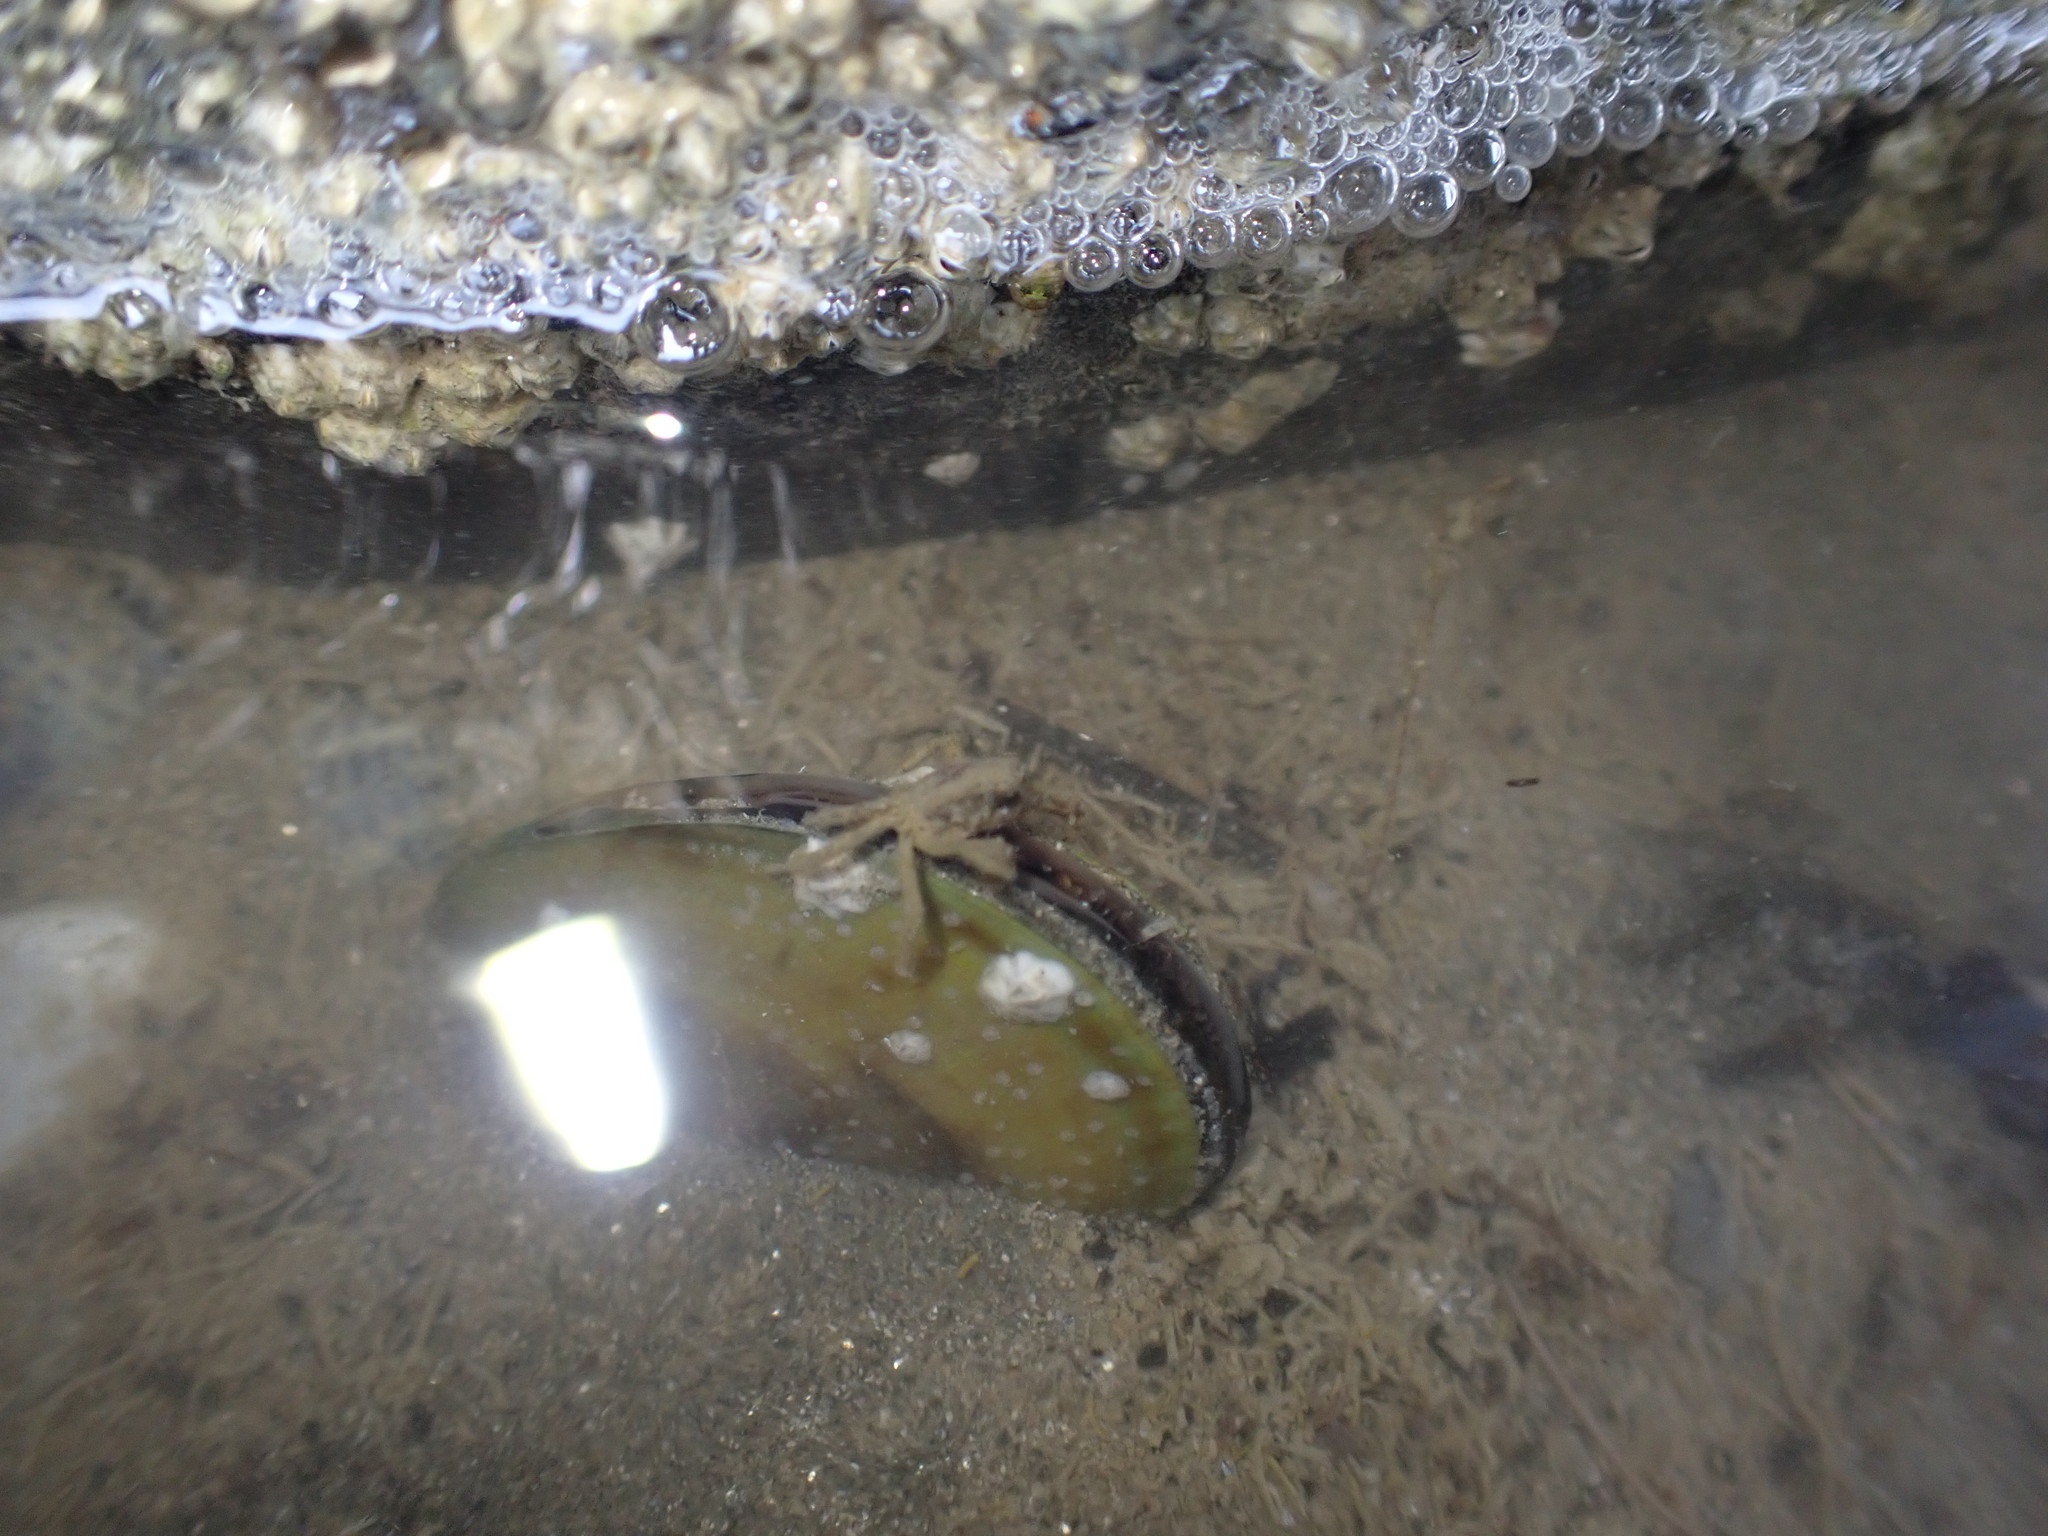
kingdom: Animalia
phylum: Mollusca
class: Bivalvia
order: Mytilida
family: Mytilidae
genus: Perna
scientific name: Perna canaliculus
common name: New zealand greenshelltm
